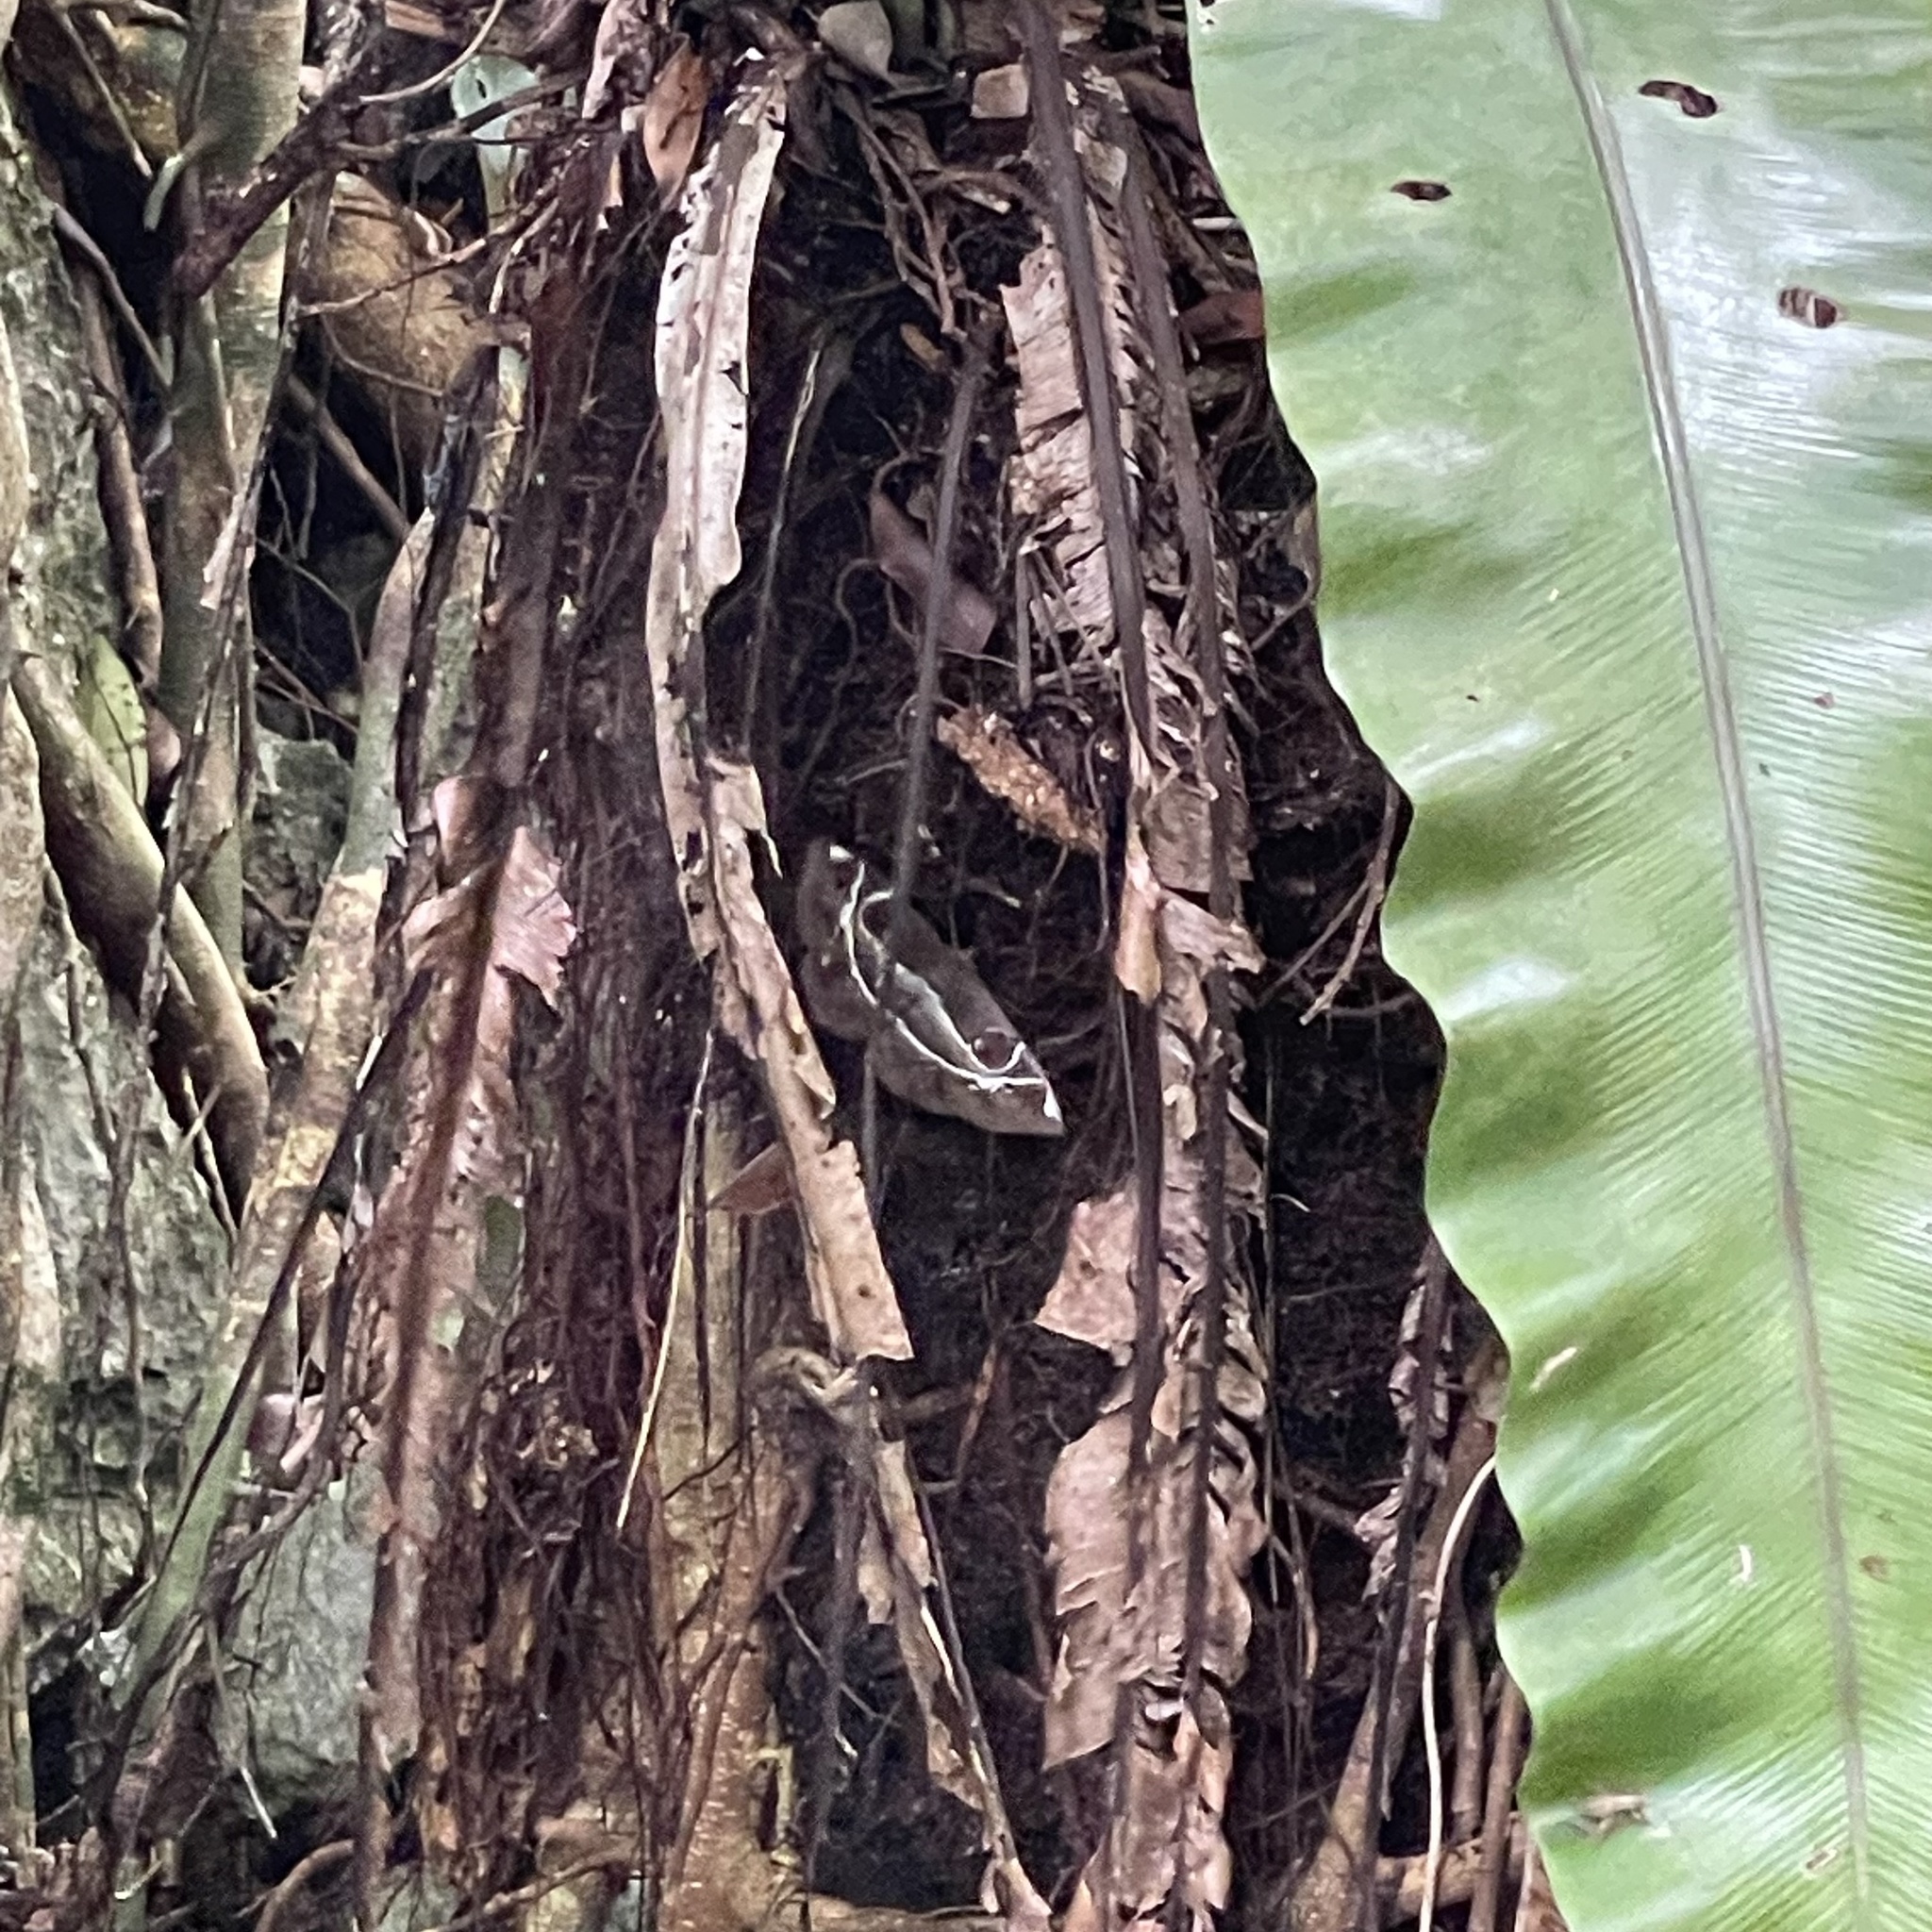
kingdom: Animalia
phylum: Arthropoda
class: Insecta
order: Lepidoptera
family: Erebidae
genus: Erebus
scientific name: Erebus ephesperis
